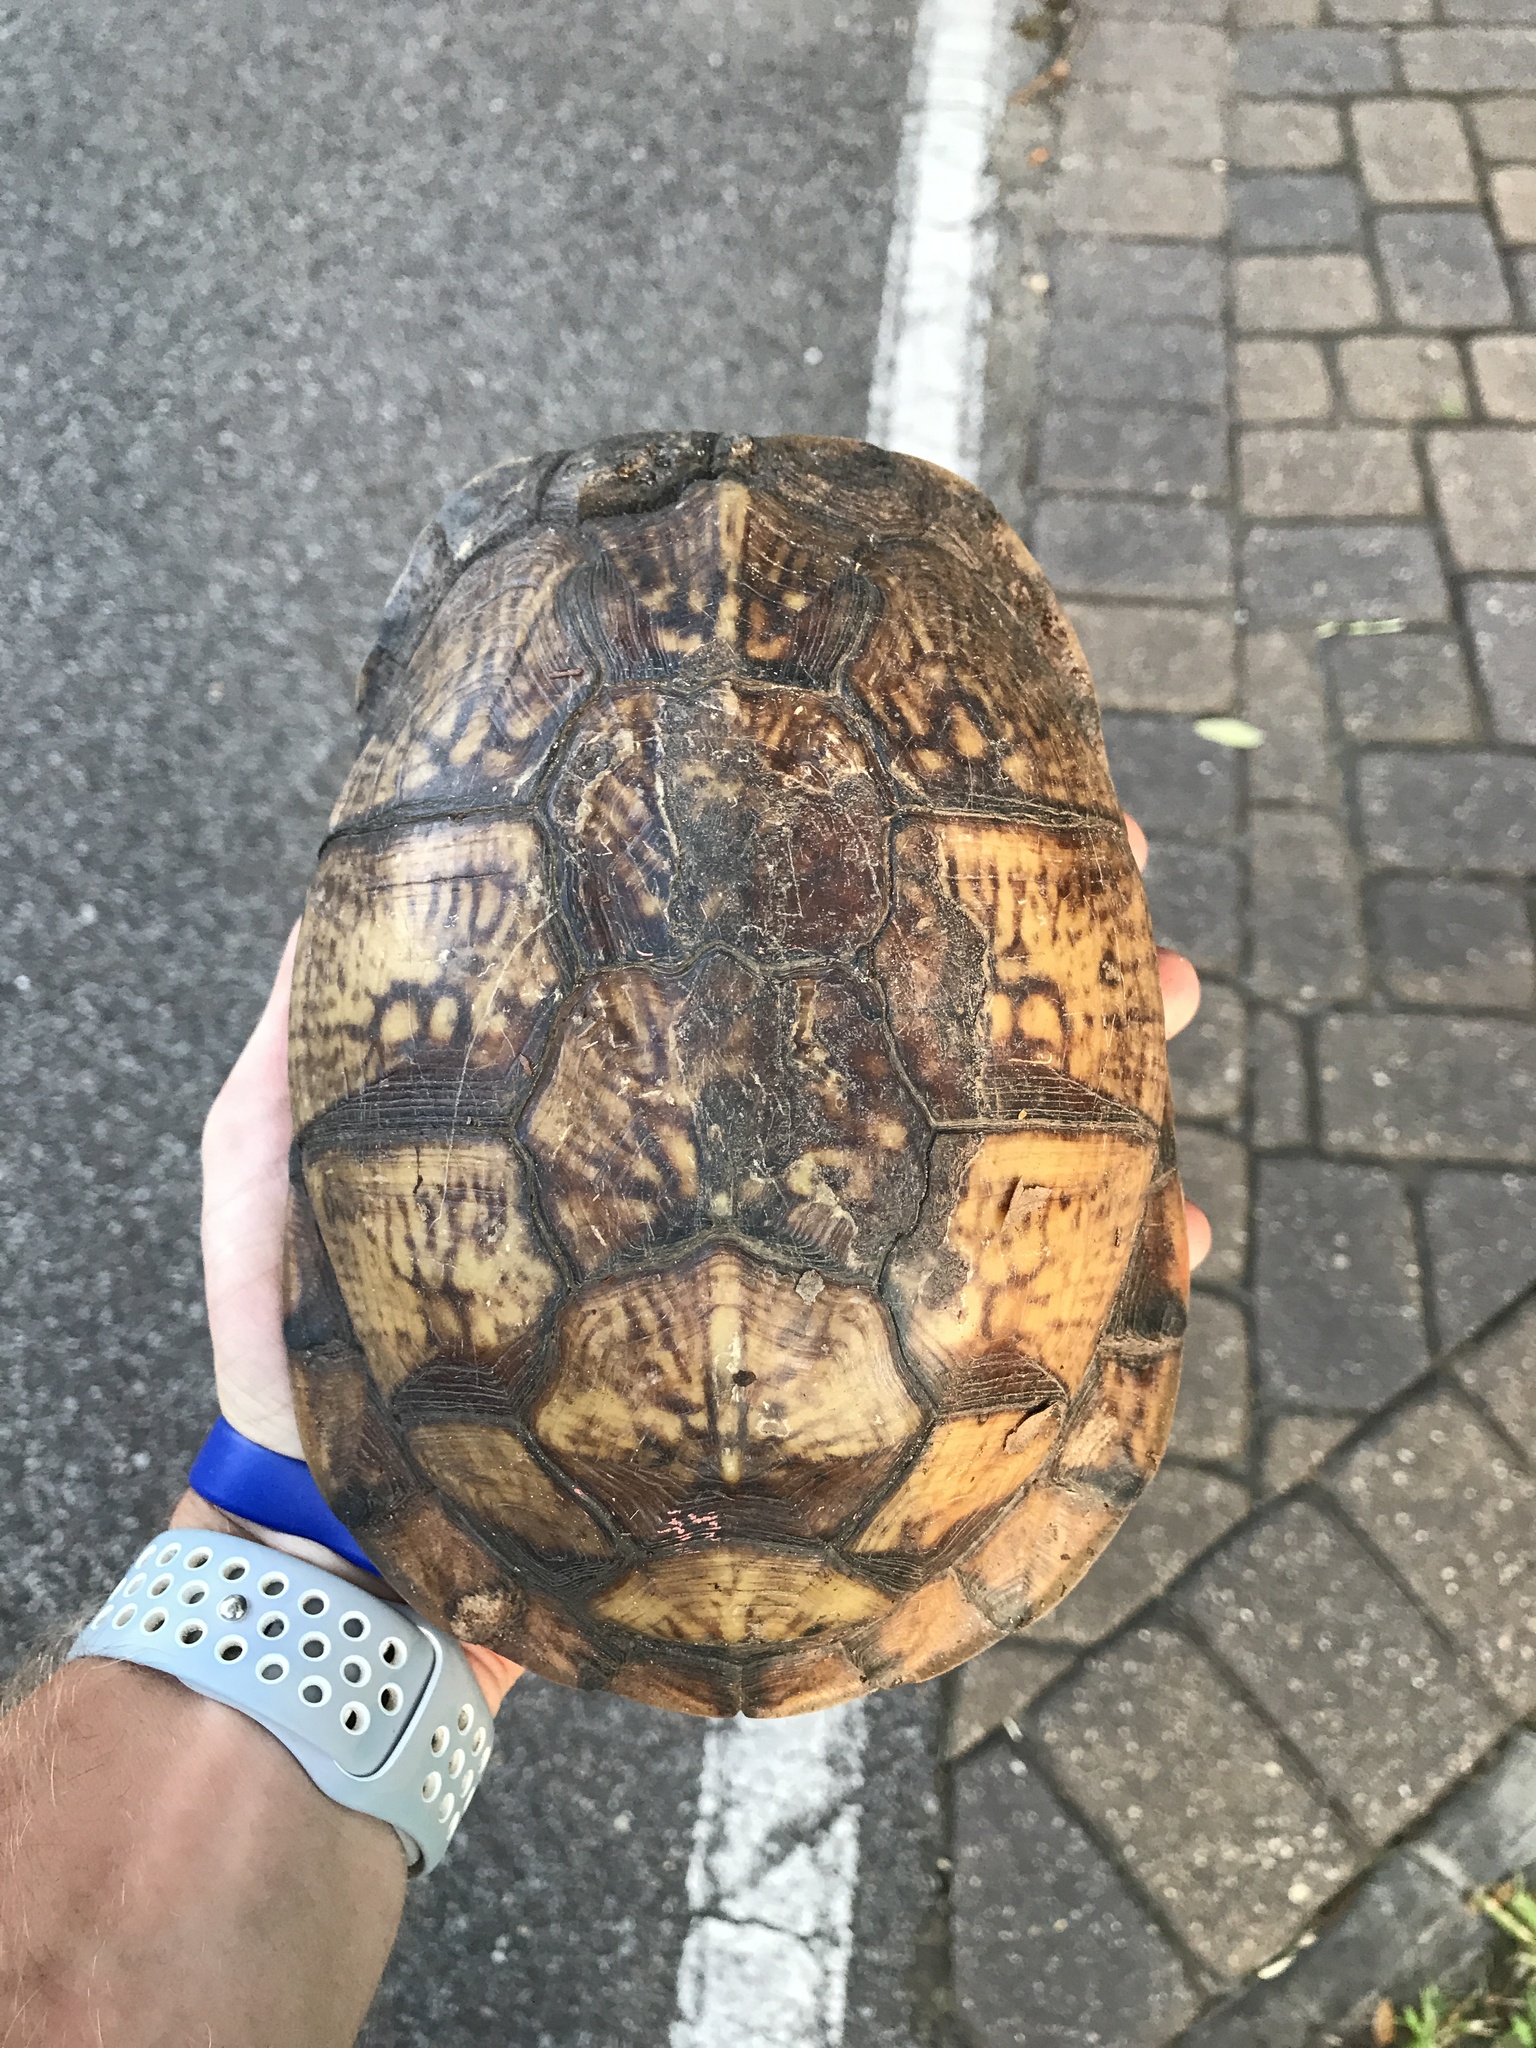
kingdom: Animalia
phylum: Chordata
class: Testudines
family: Emydidae
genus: Terrapene
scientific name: Terrapene carolina
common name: Common box turtle
